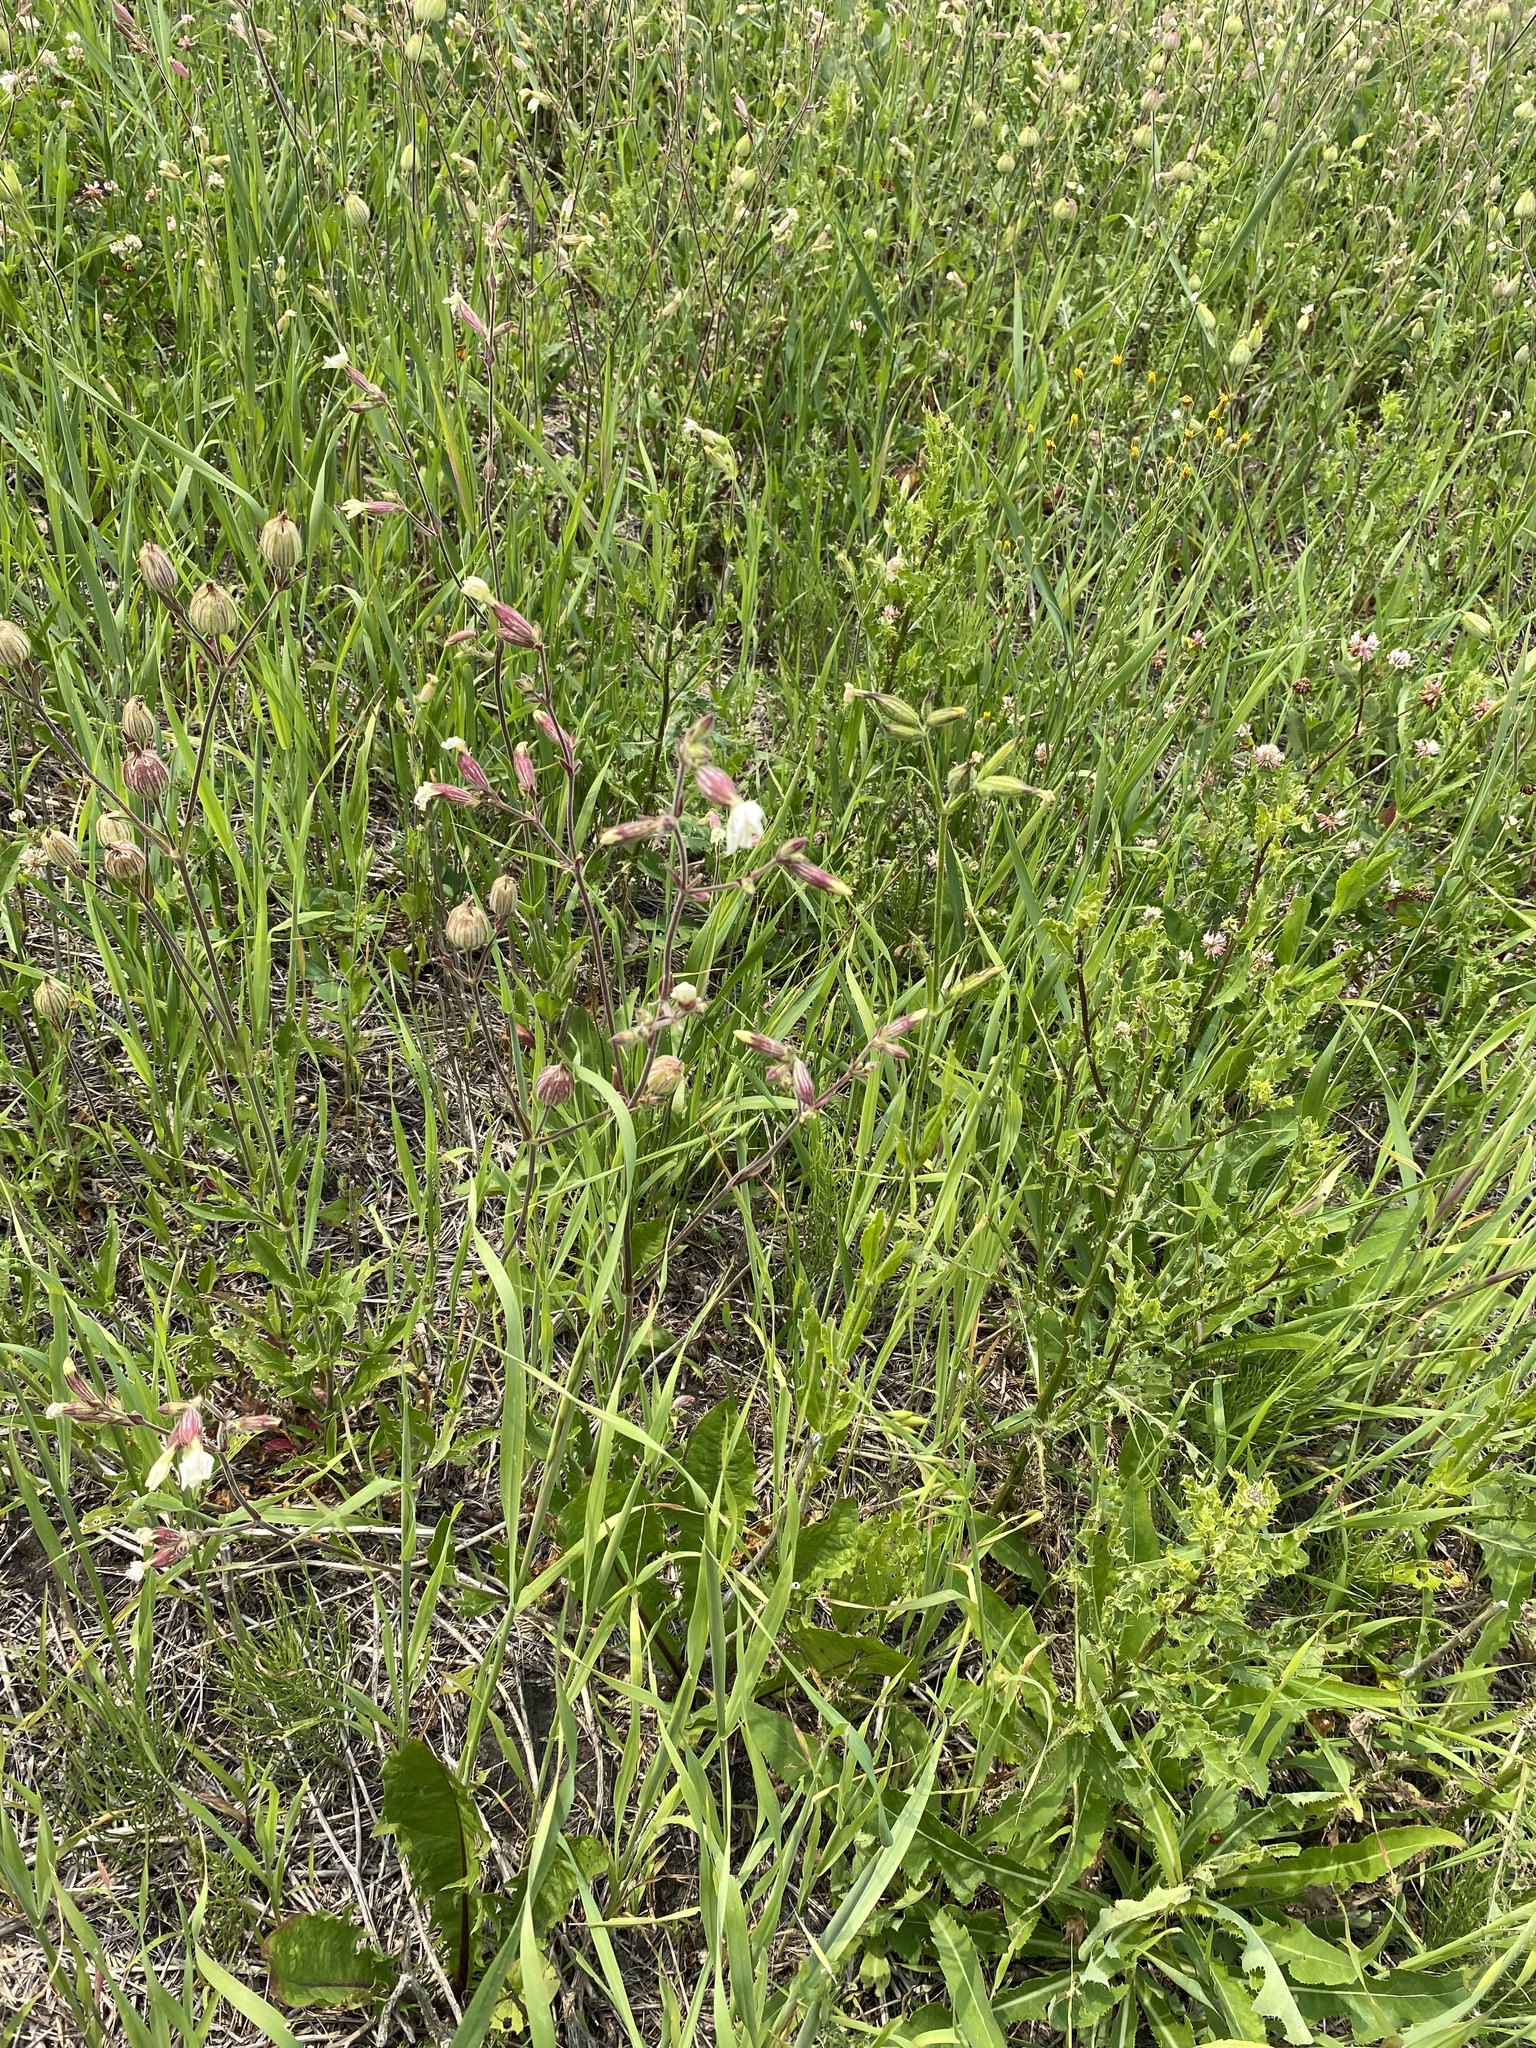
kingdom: Plantae
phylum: Tracheophyta
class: Magnoliopsida
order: Caryophyllales
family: Caryophyllaceae
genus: Silene
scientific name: Silene latifolia
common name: White campion
